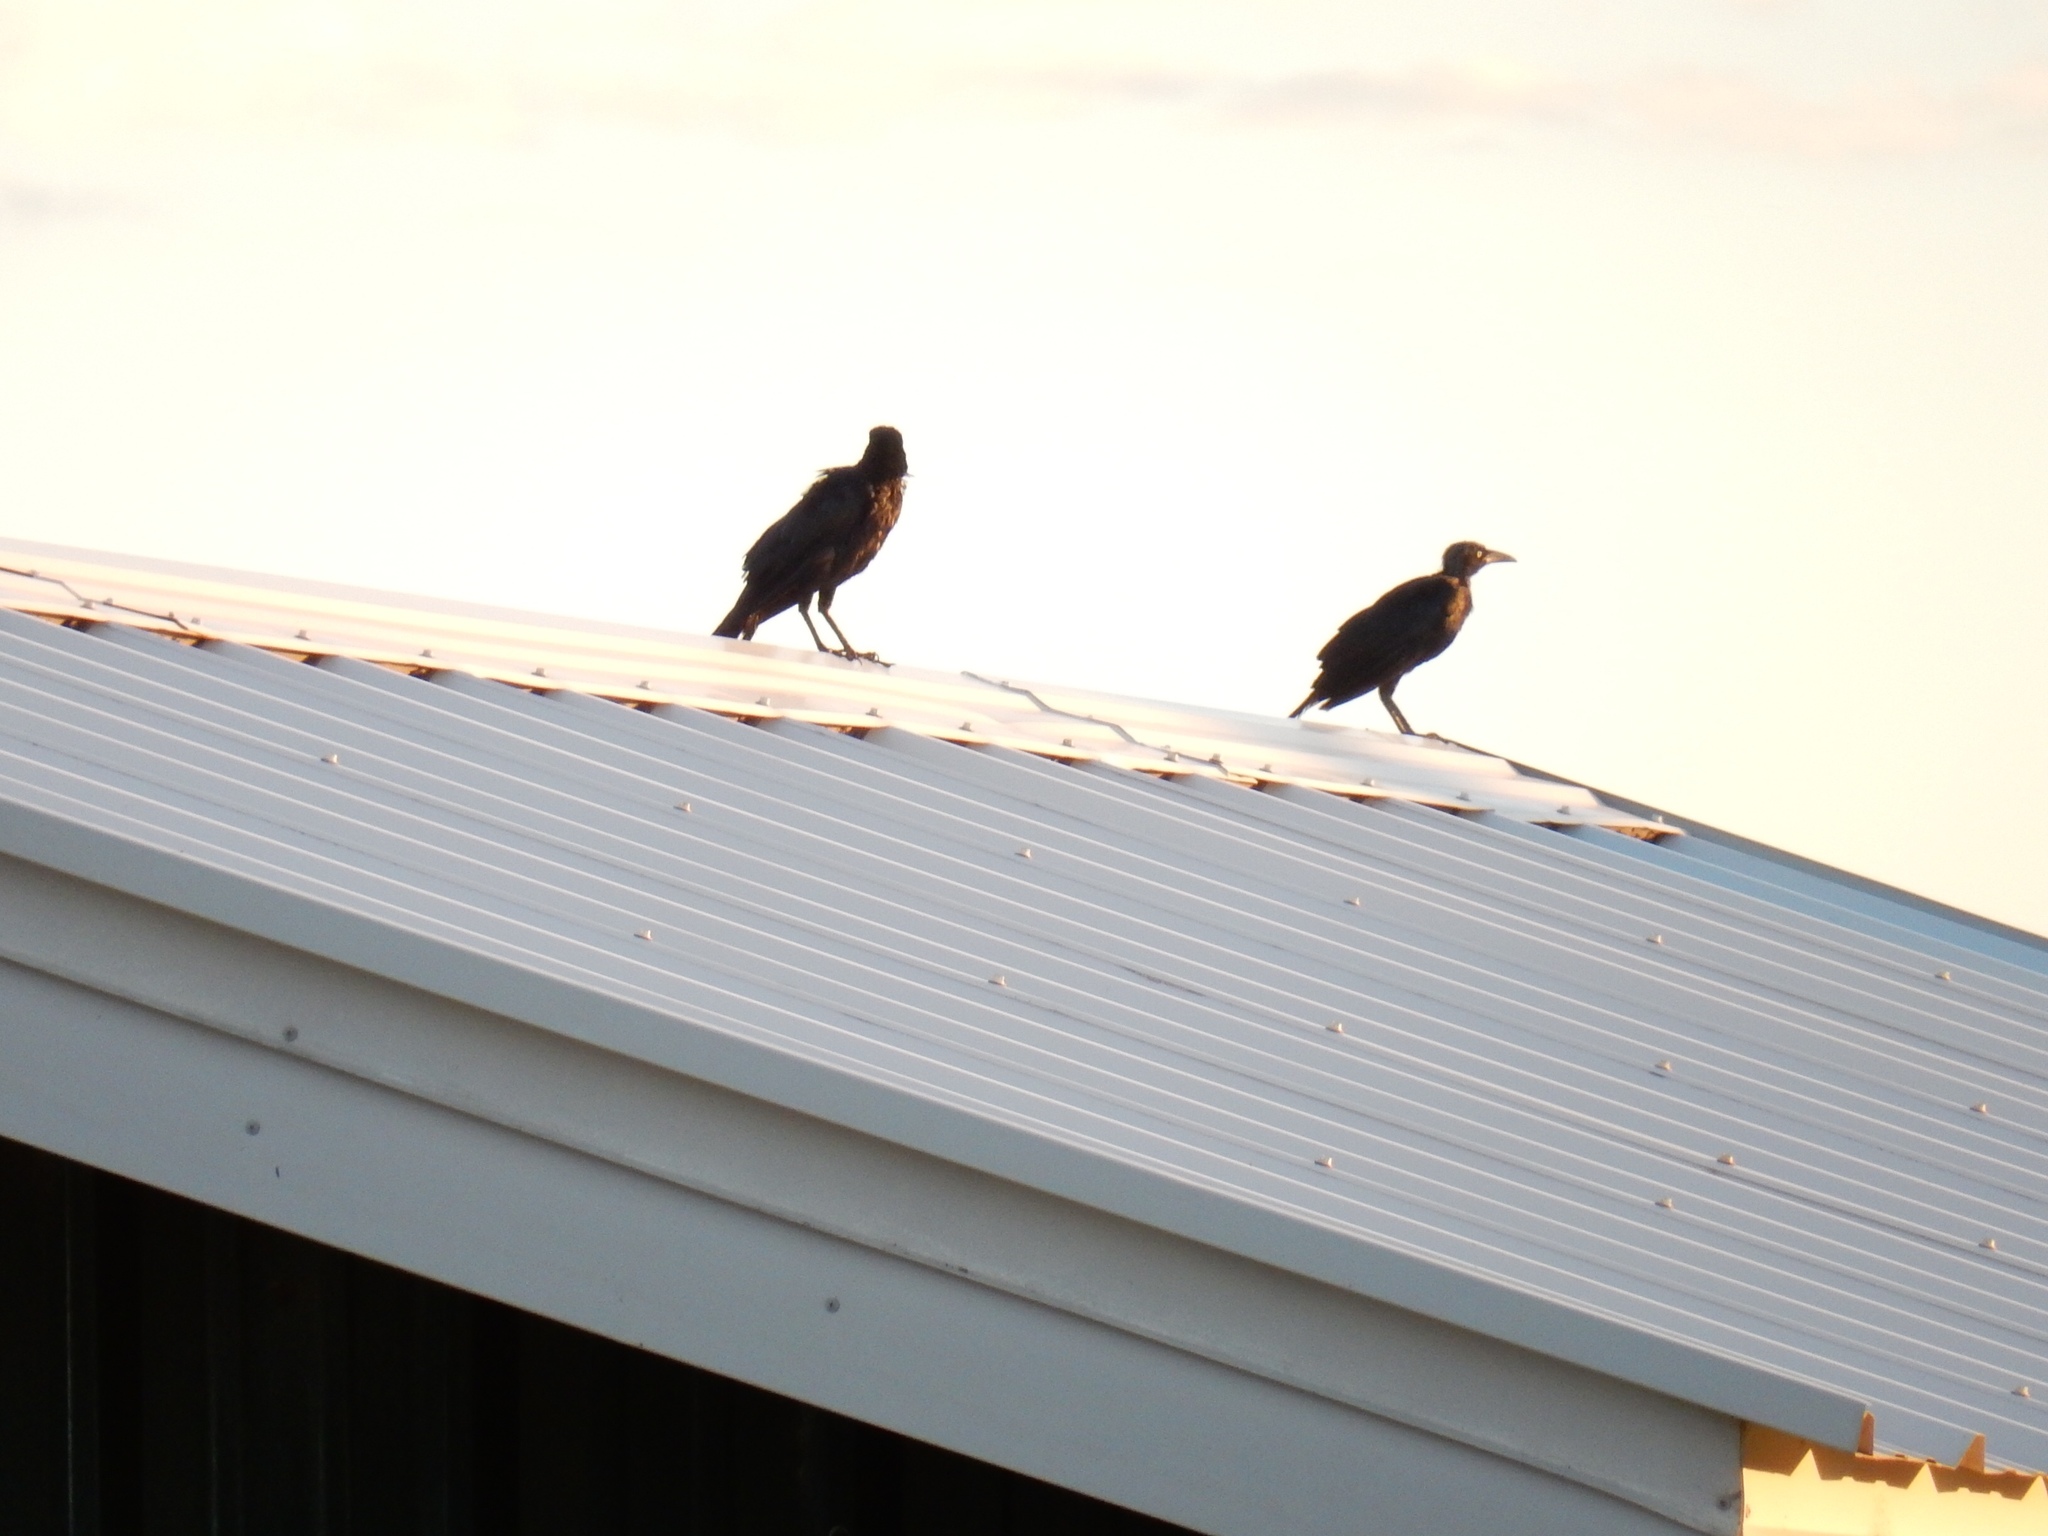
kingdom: Animalia
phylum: Chordata
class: Aves
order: Passeriformes
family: Icteridae
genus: Quiscalus
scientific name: Quiscalus mexicanus
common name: Great-tailed grackle
